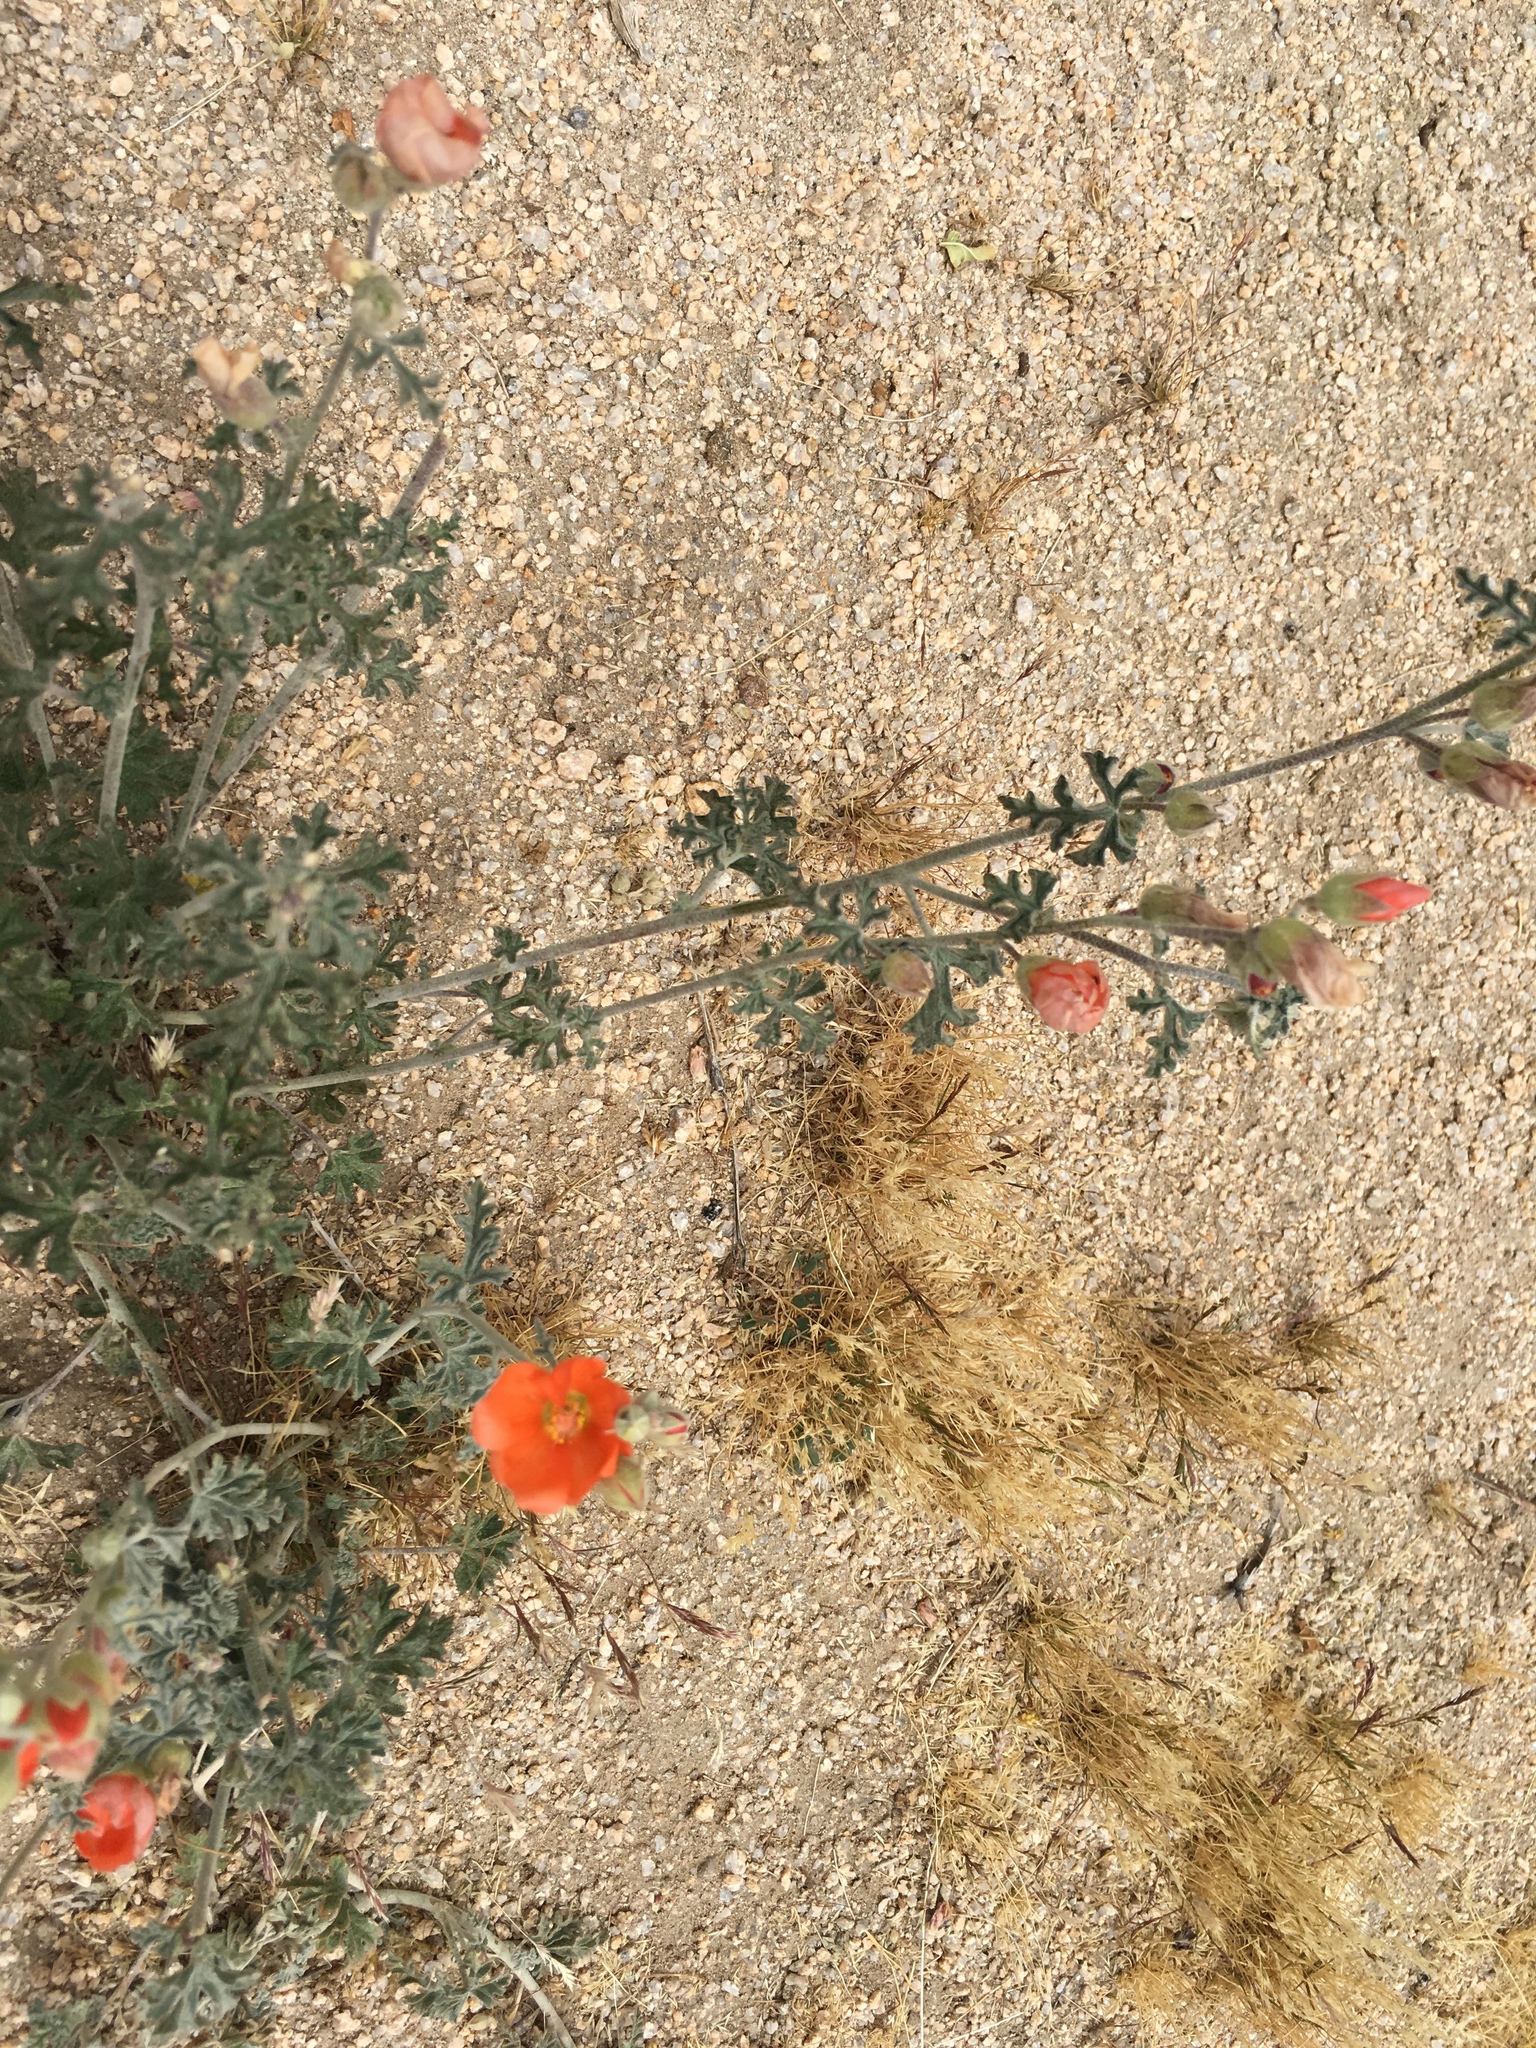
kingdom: Plantae
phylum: Tracheophyta
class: Magnoliopsida
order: Malvales
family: Malvaceae
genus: Sphaeralcea
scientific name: Sphaeralcea rusbyi
